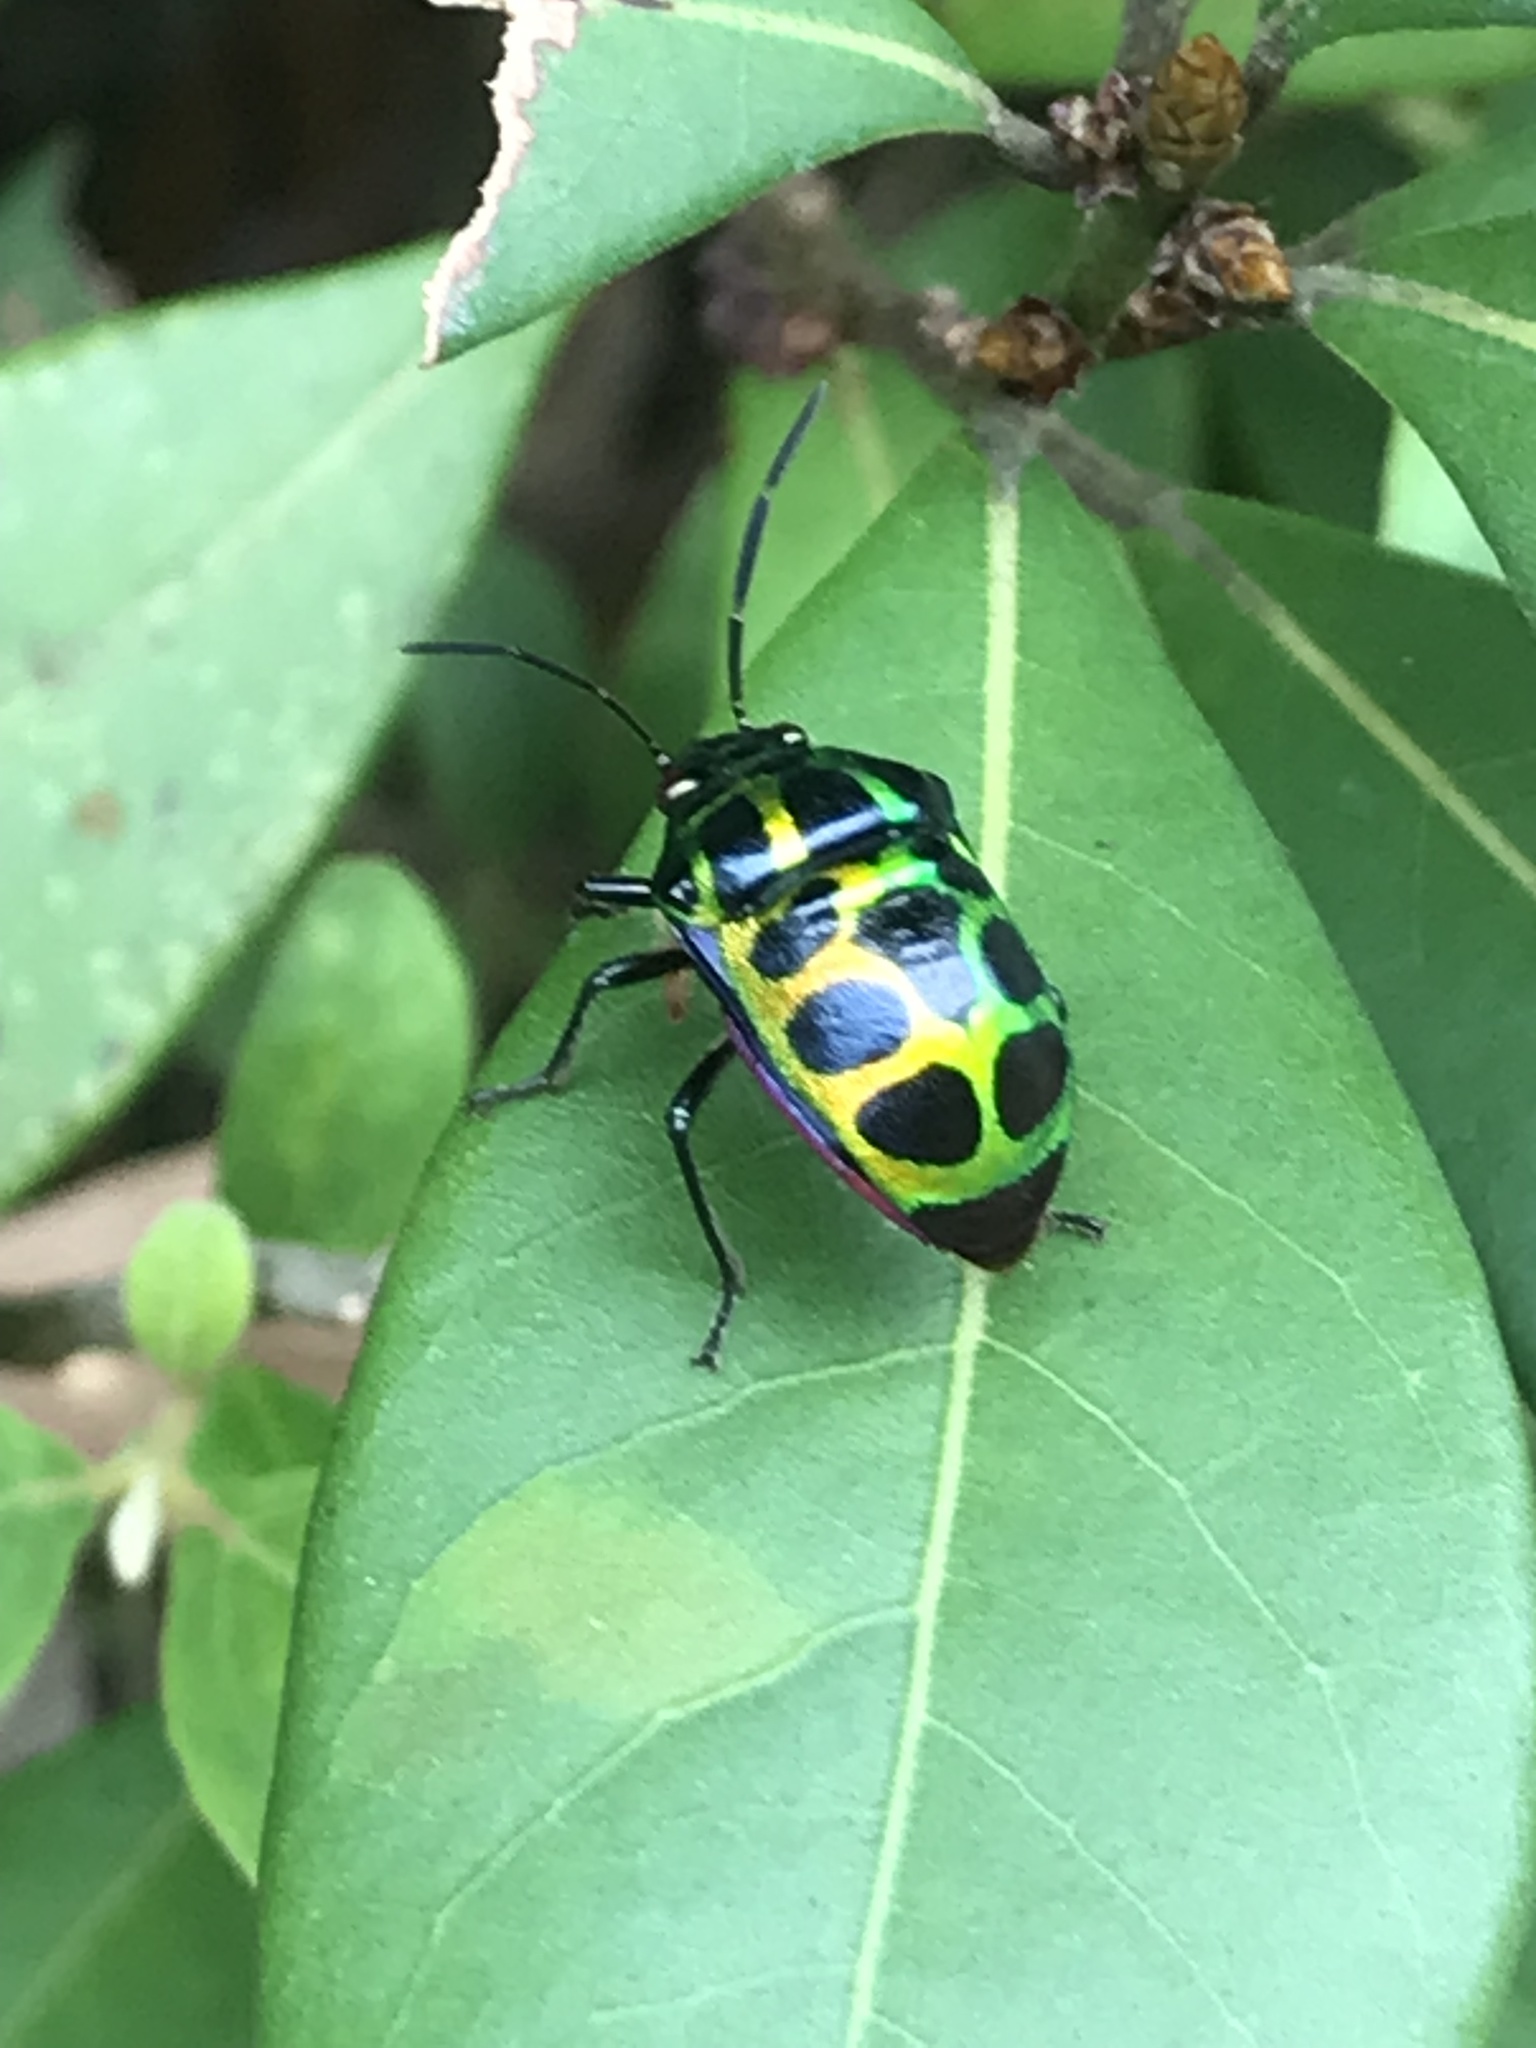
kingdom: Animalia
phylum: Arthropoda
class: Insecta
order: Hemiptera
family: Scutelleridae
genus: Chrysocoris
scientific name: Chrysocoris stollii
